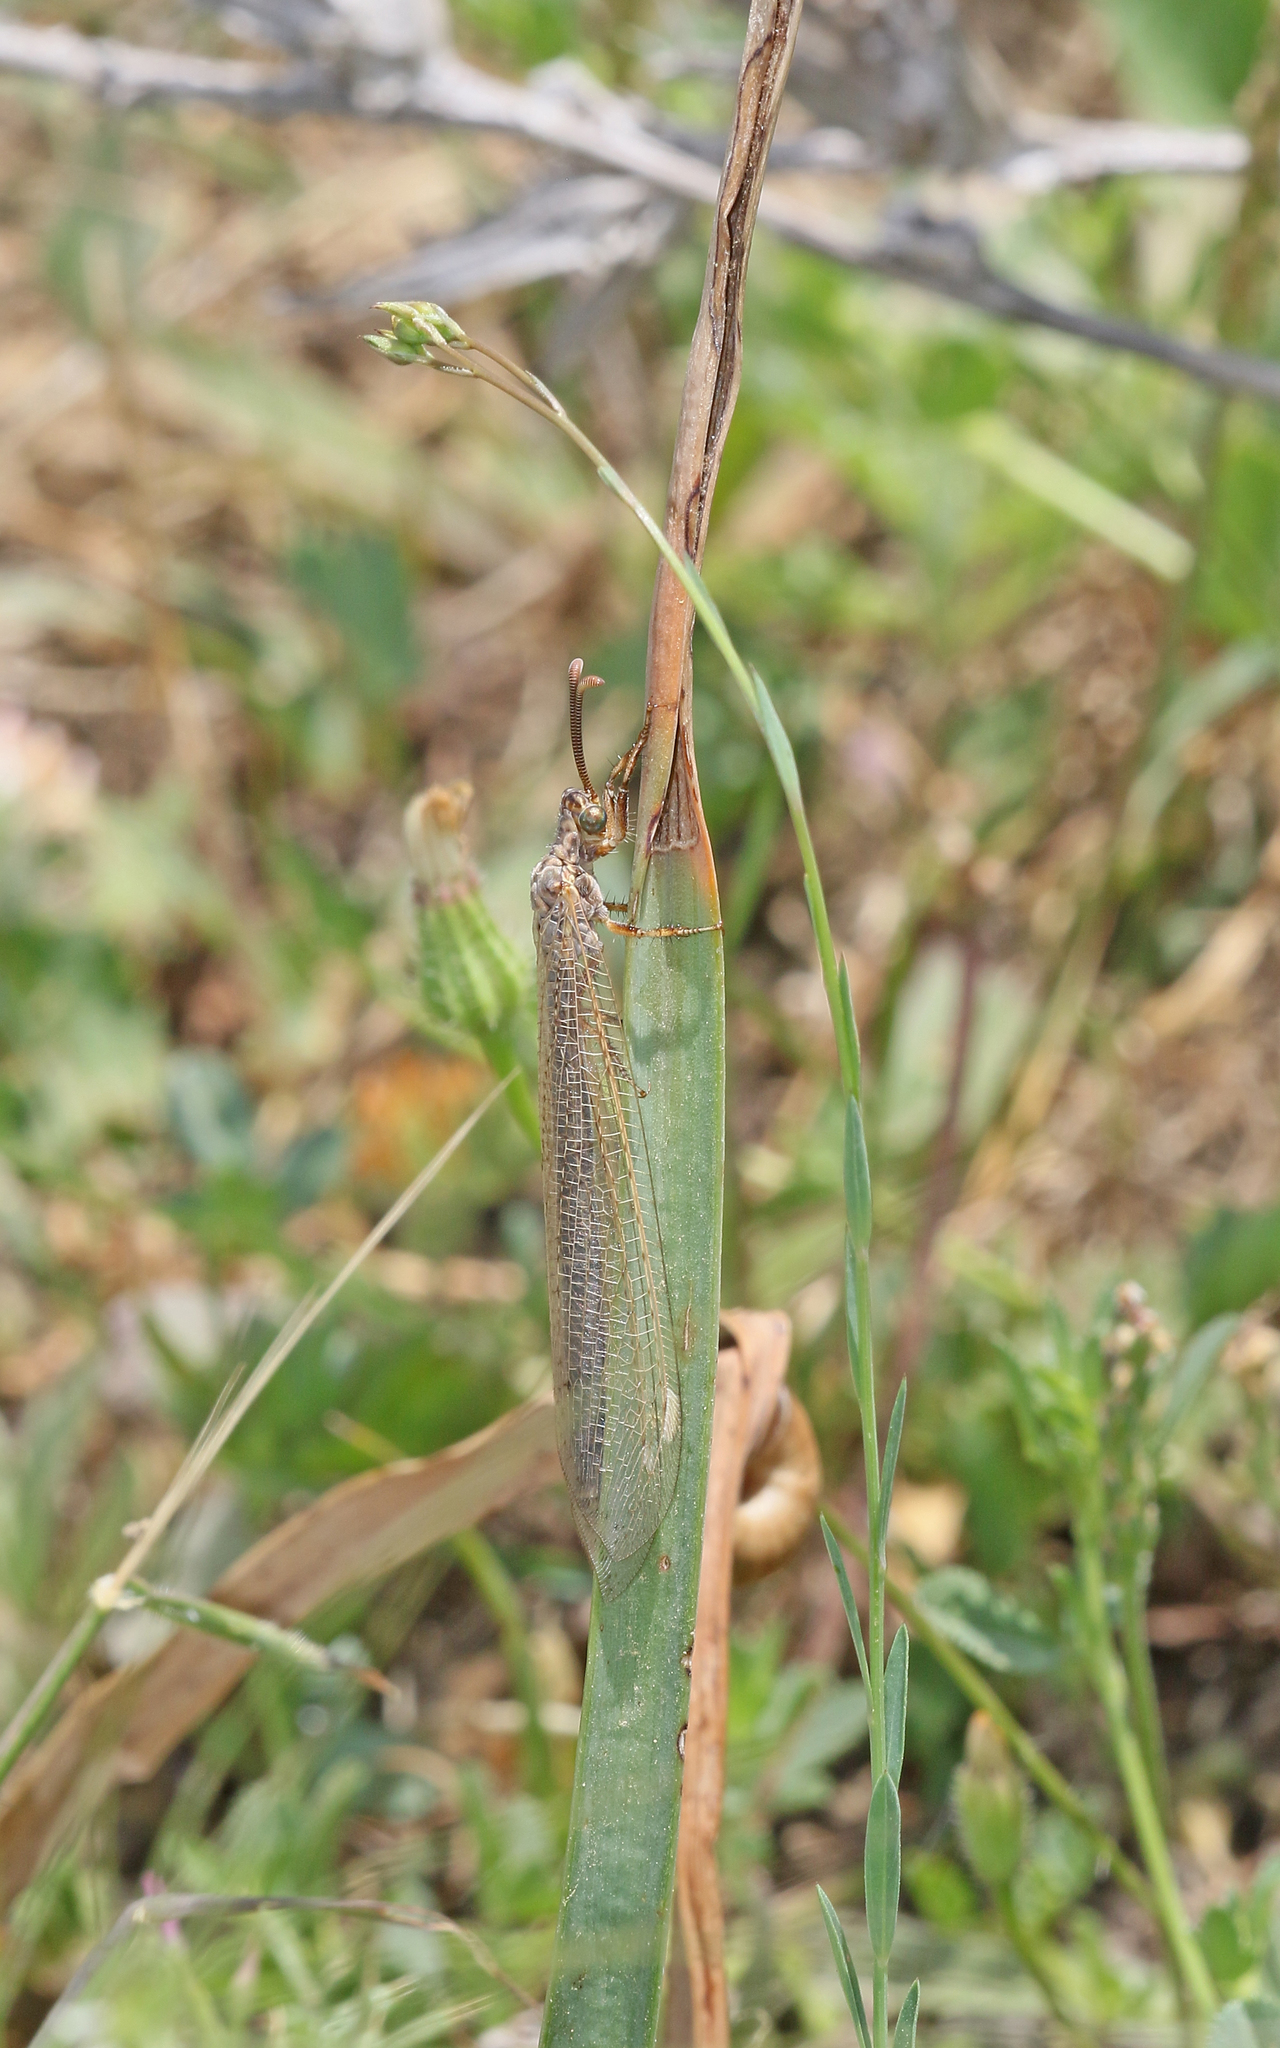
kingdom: Animalia
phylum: Arthropoda
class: Insecta
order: Neuroptera
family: Myrmeleontidae
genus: Creoleon
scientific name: Creoleon lugdunensis
